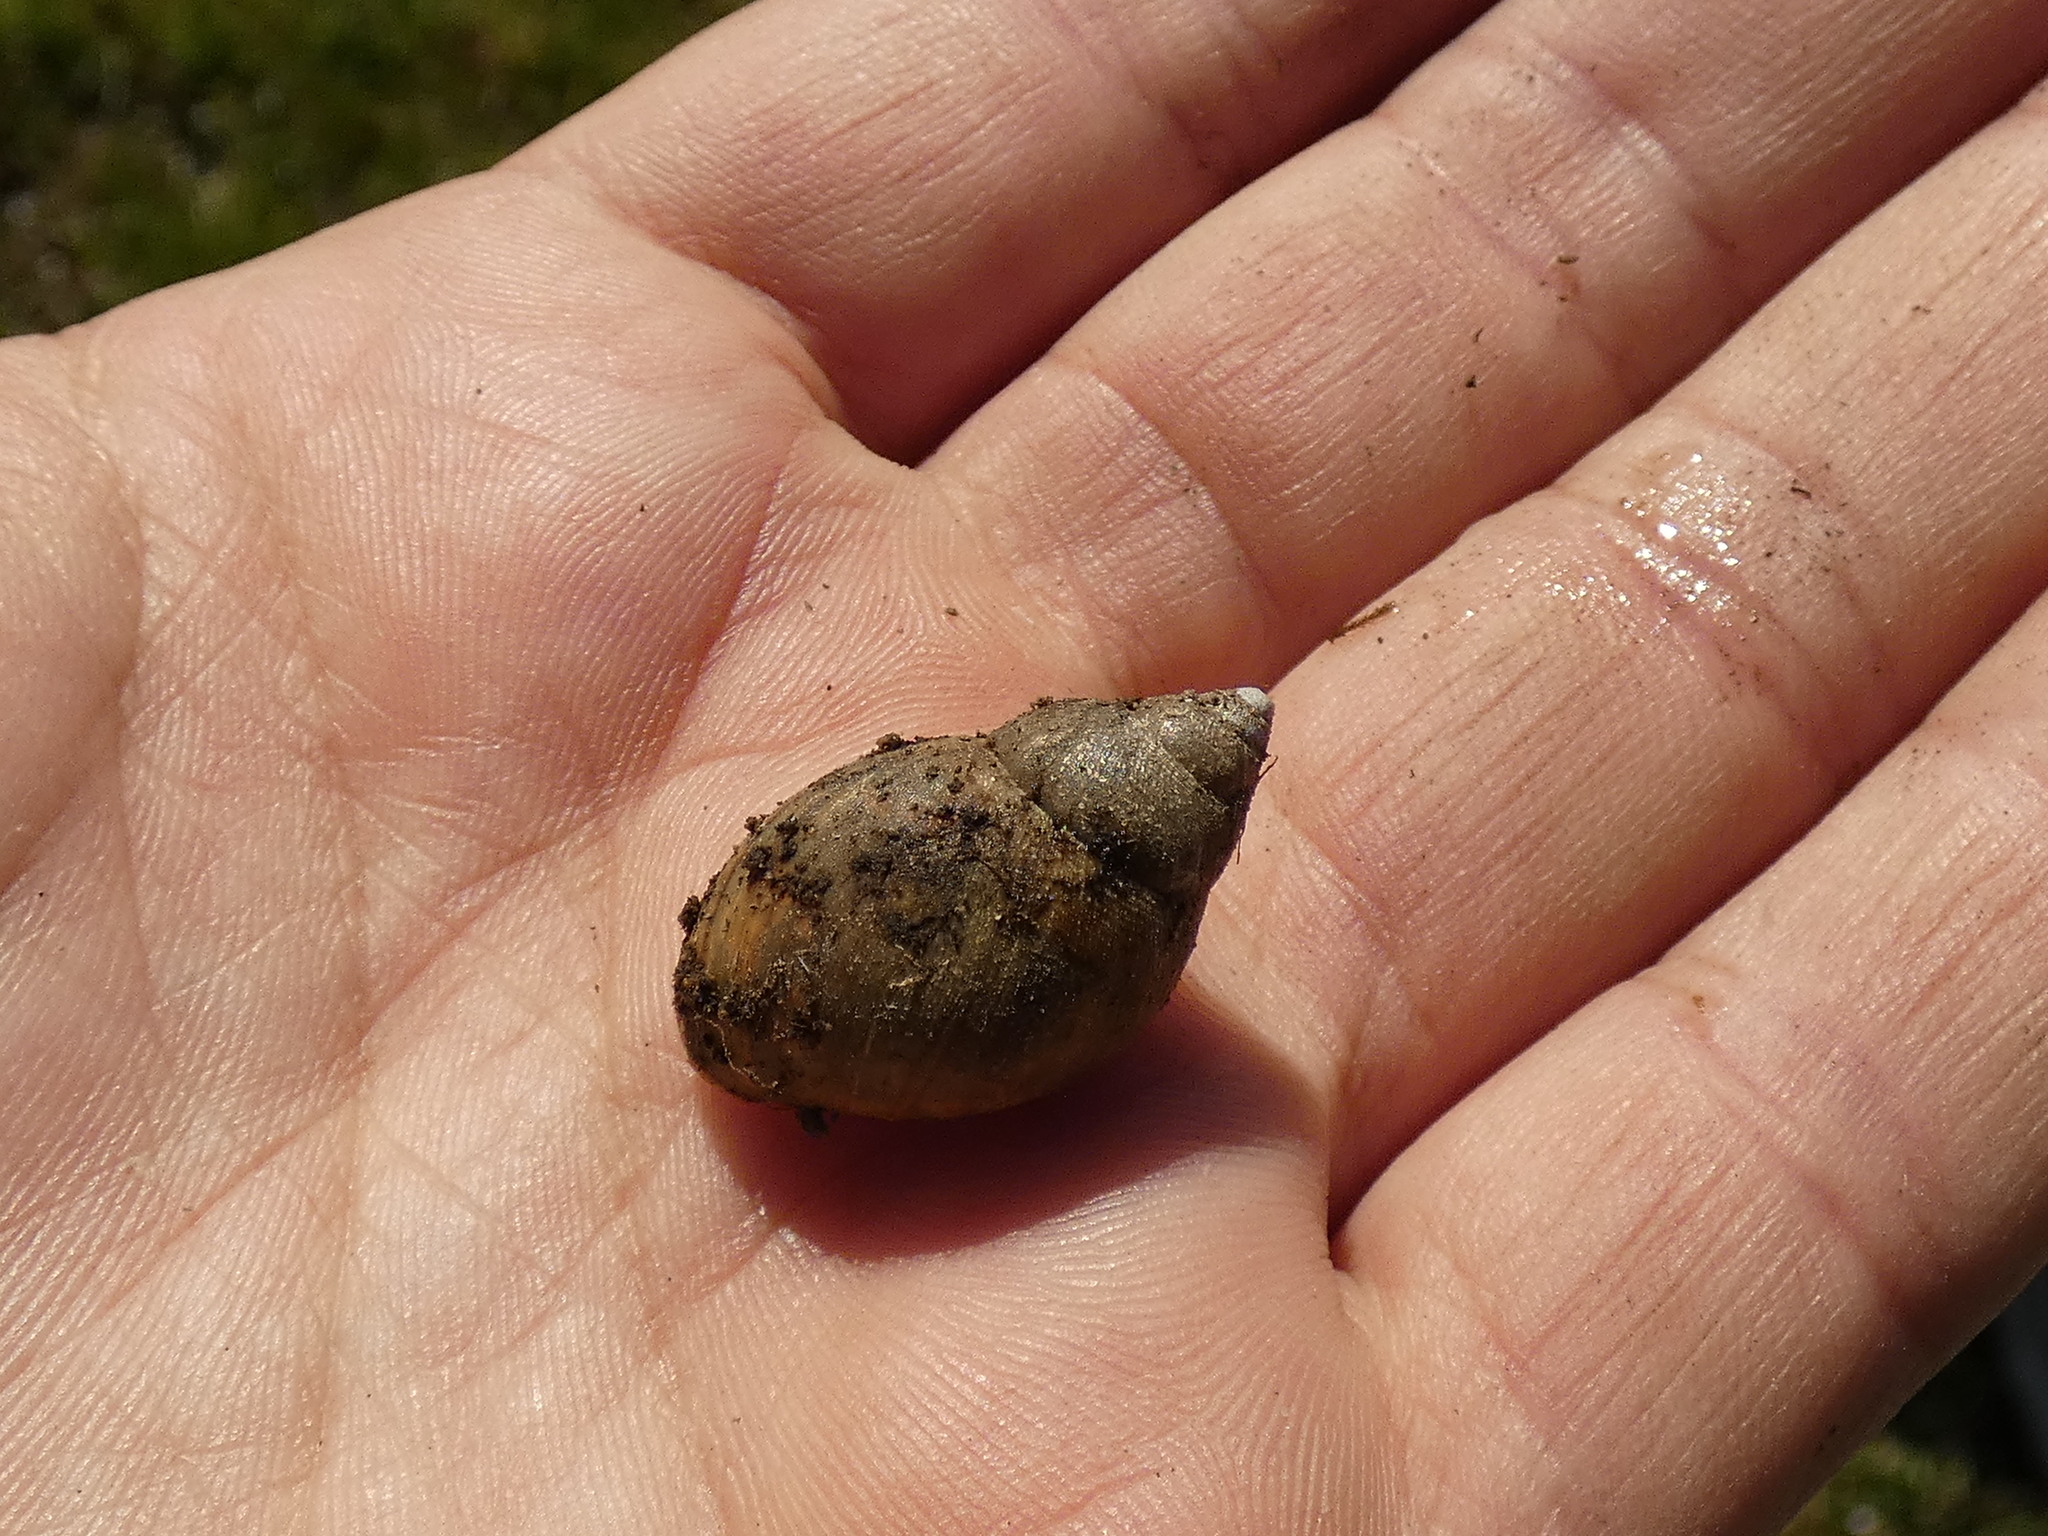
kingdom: Animalia
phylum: Mollusca
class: Gastropoda
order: Stylommatophora
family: Bothriembryontidae
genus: Plectostylus
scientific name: Plectostylus chilensis
